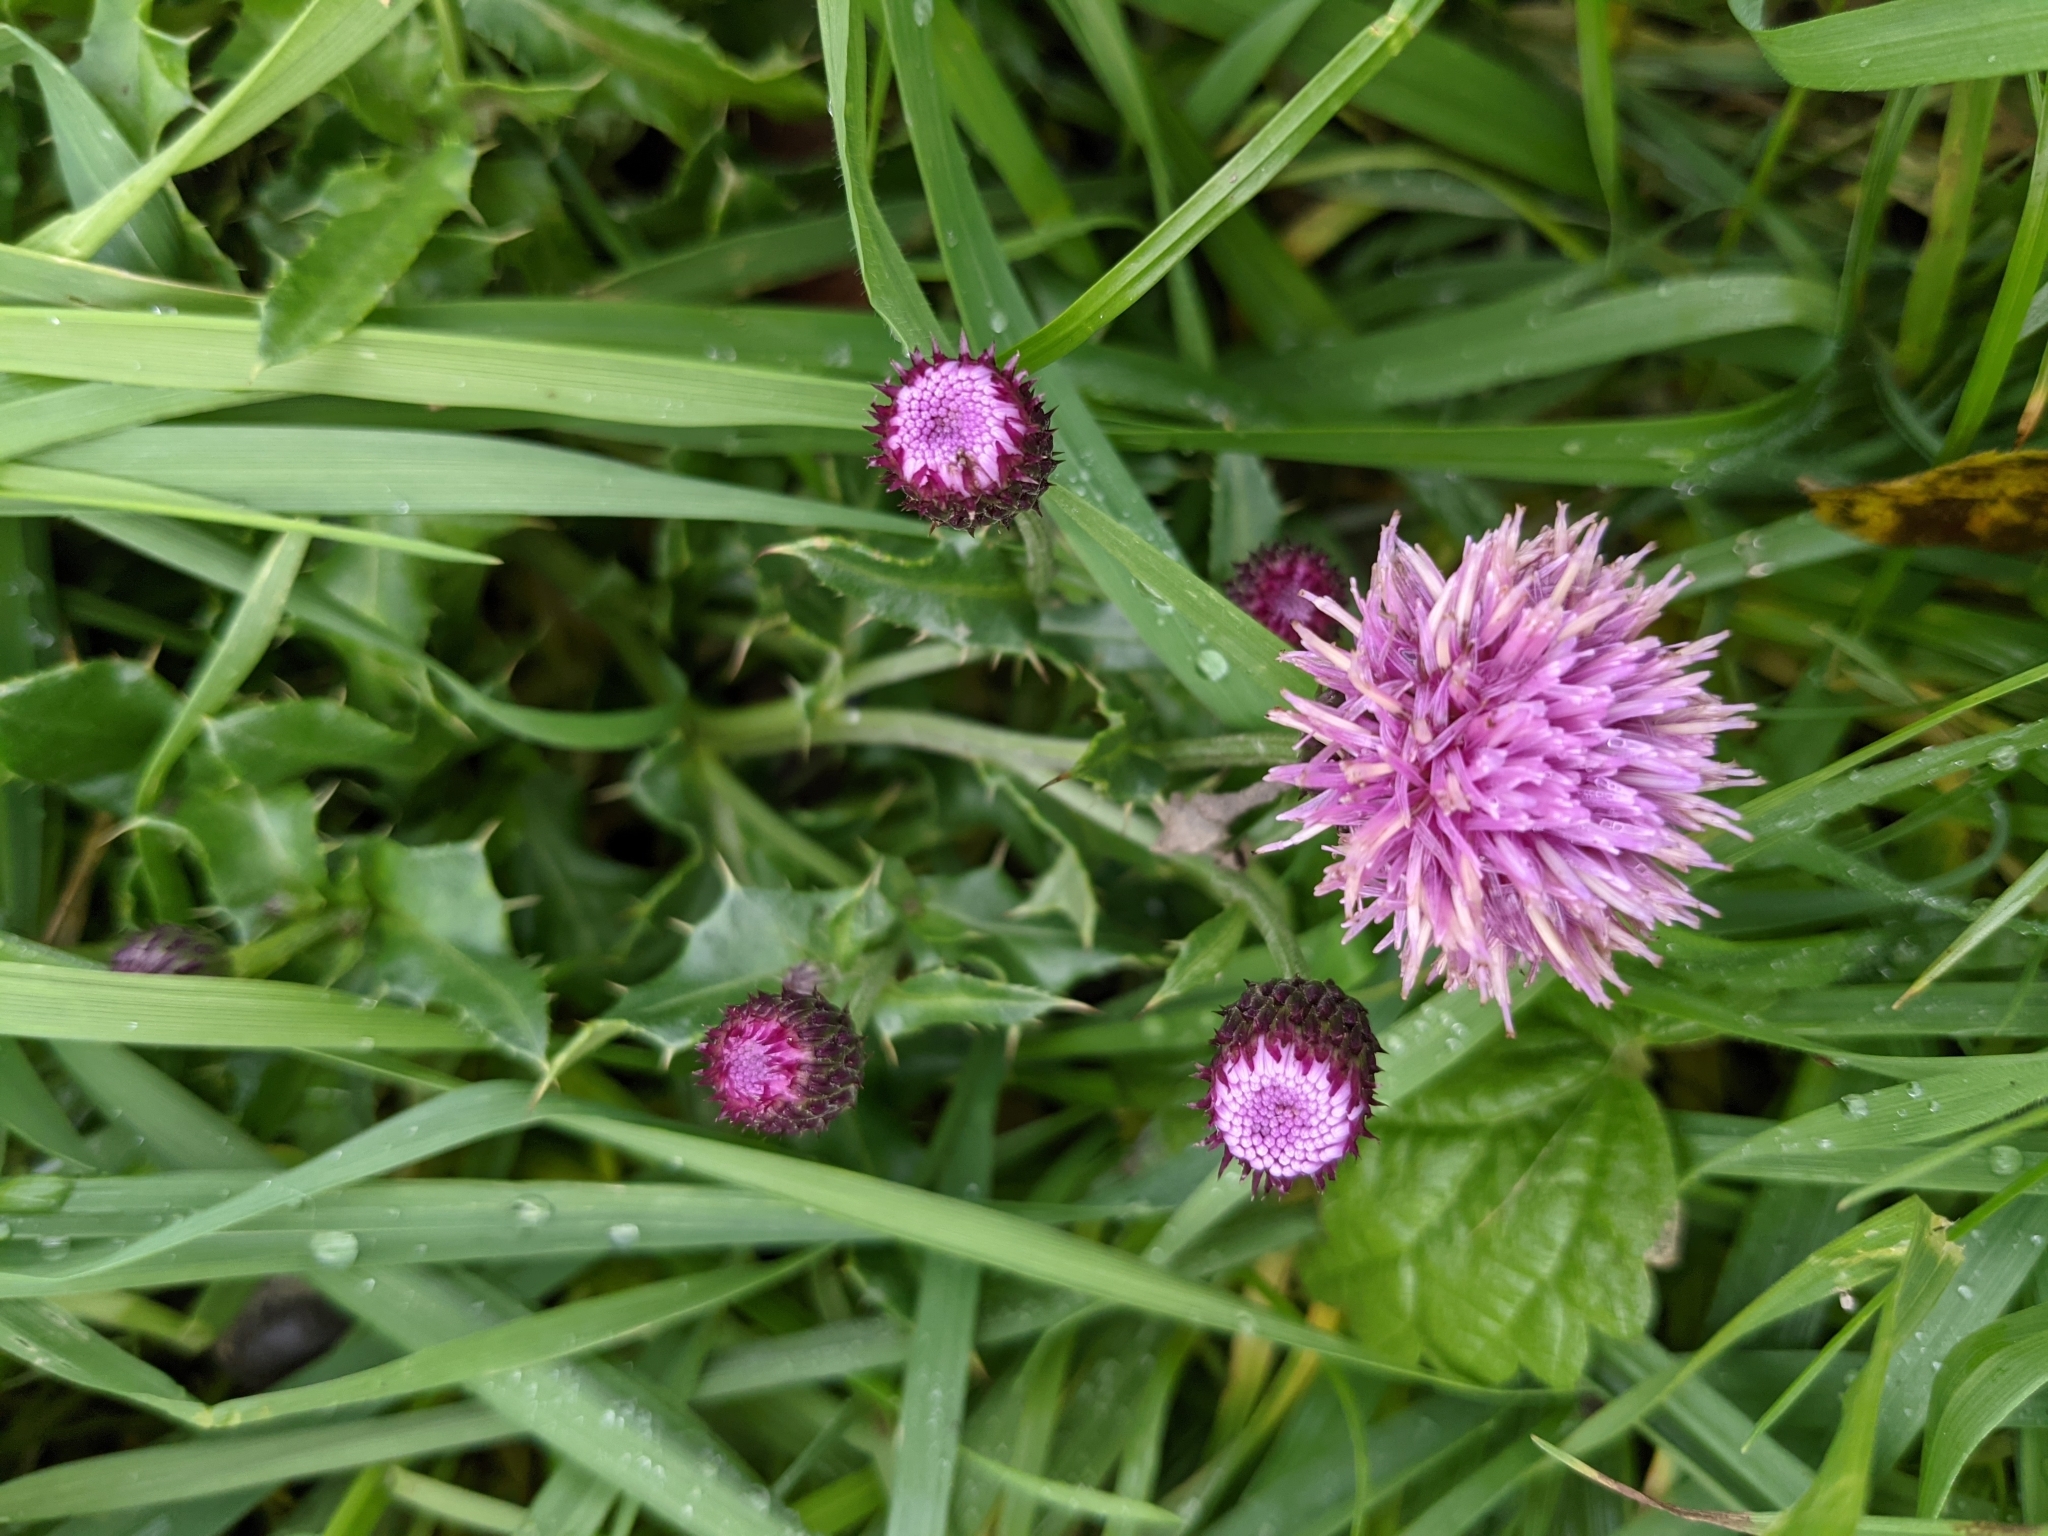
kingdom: Plantae
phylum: Tracheophyta
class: Magnoliopsida
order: Asterales
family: Asteraceae
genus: Cirsium
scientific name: Cirsium arvense
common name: Creeping thistle
